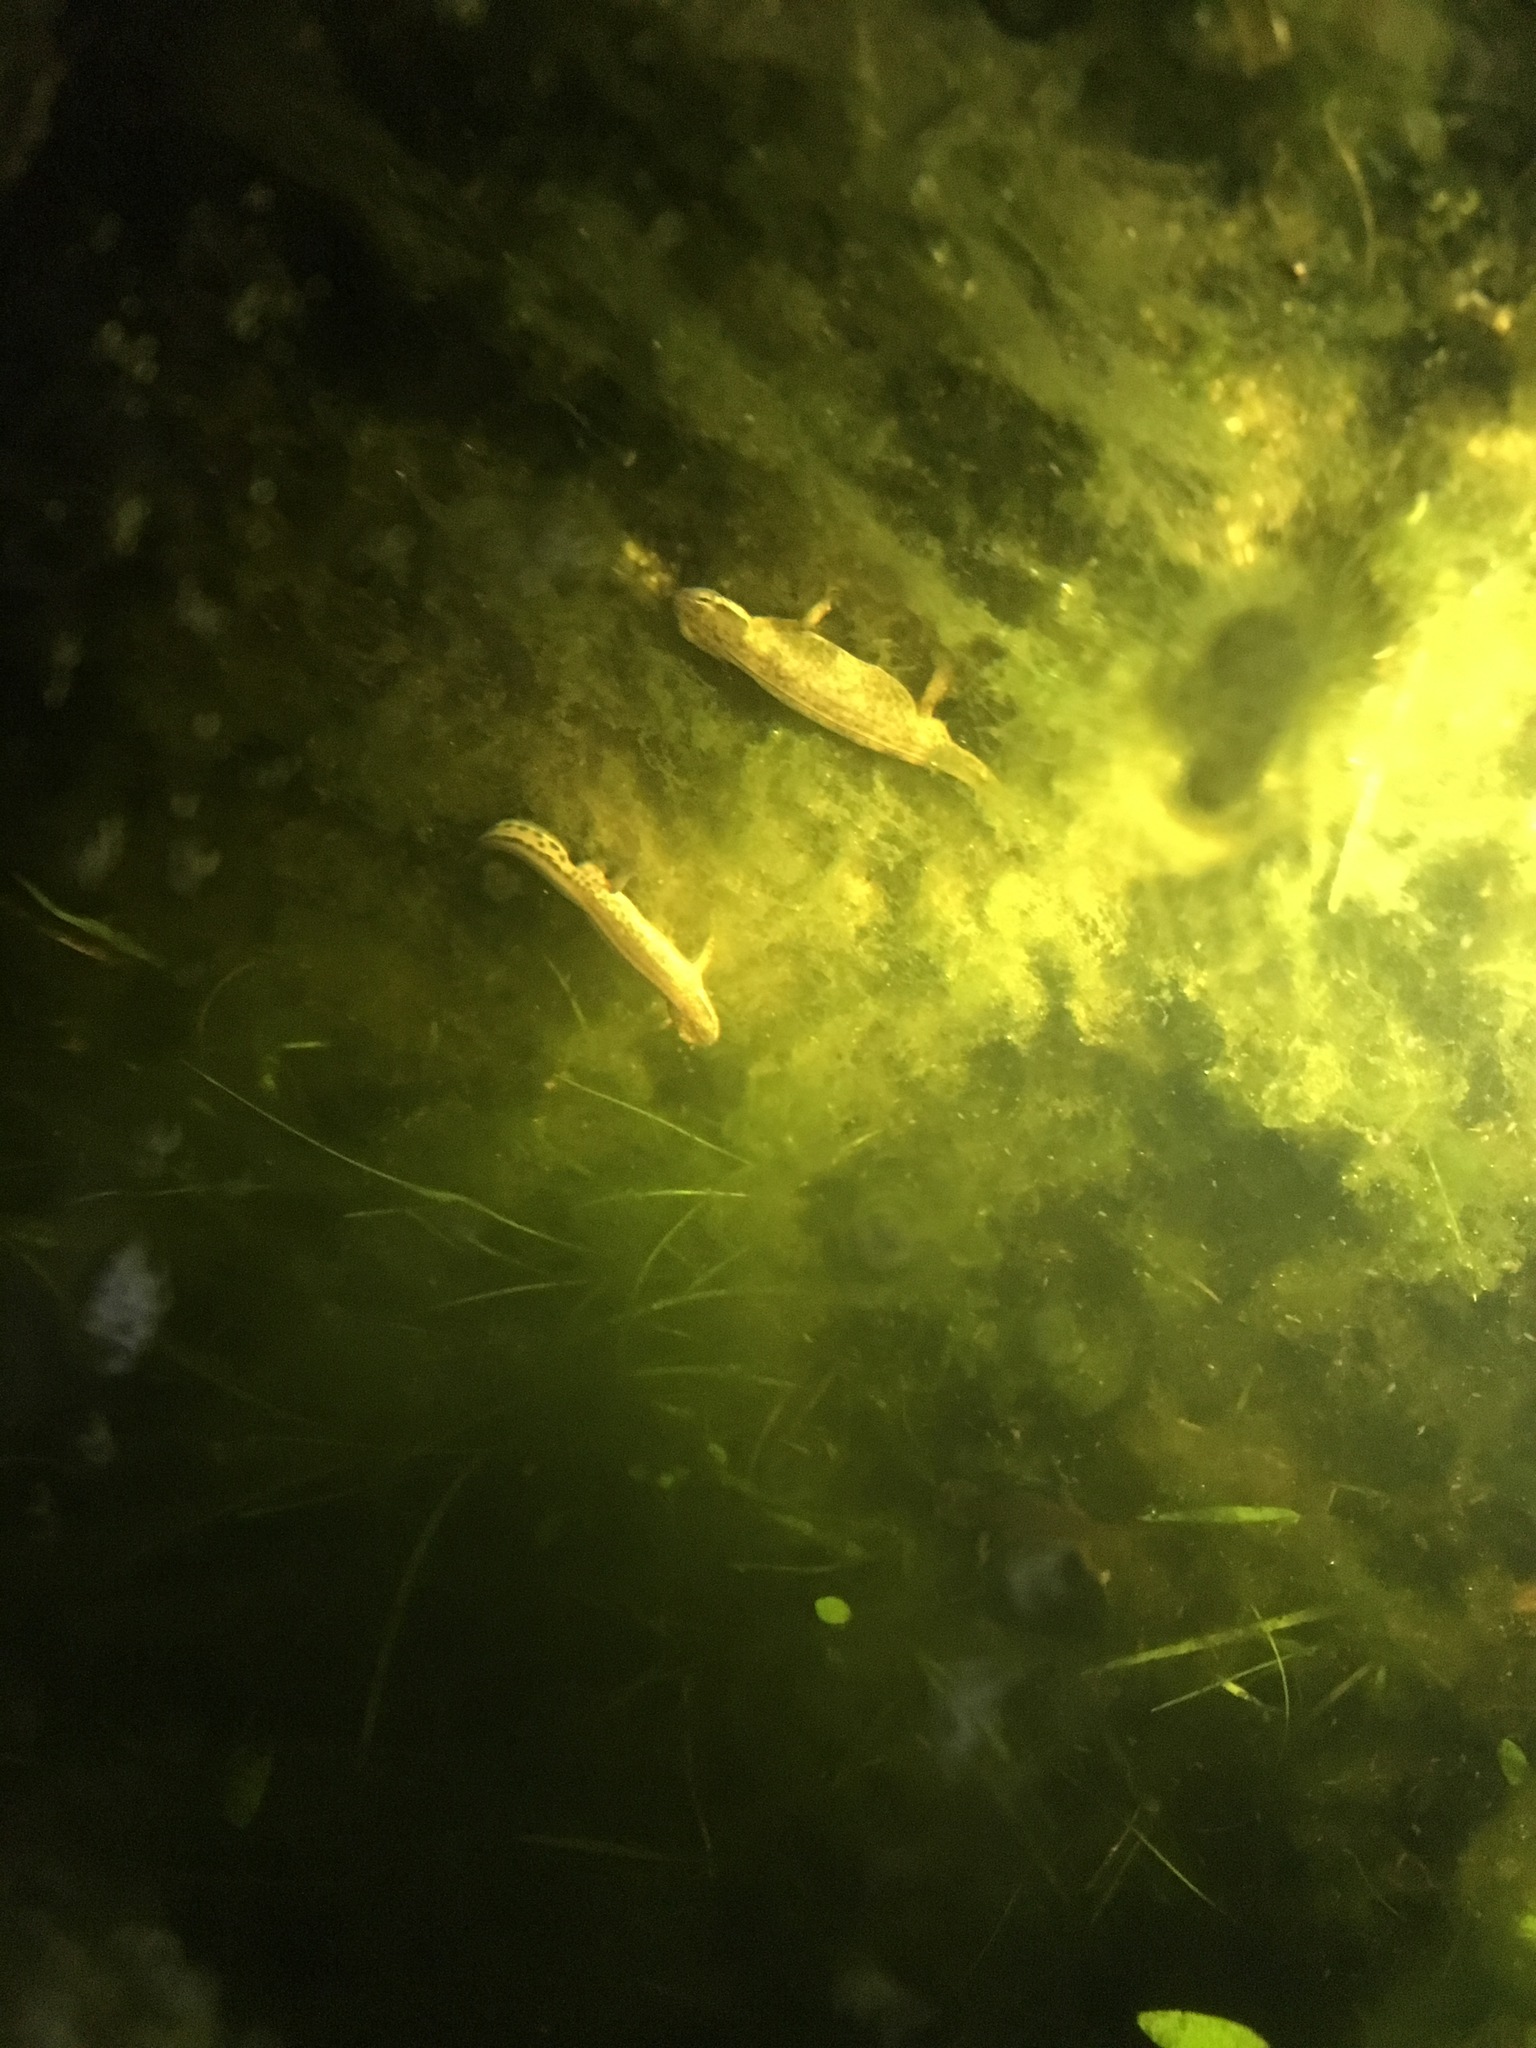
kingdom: Animalia
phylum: Chordata
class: Amphibia
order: Caudata
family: Salamandridae
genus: Lissotriton
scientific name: Lissotriton helveticus
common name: Palmate newt
